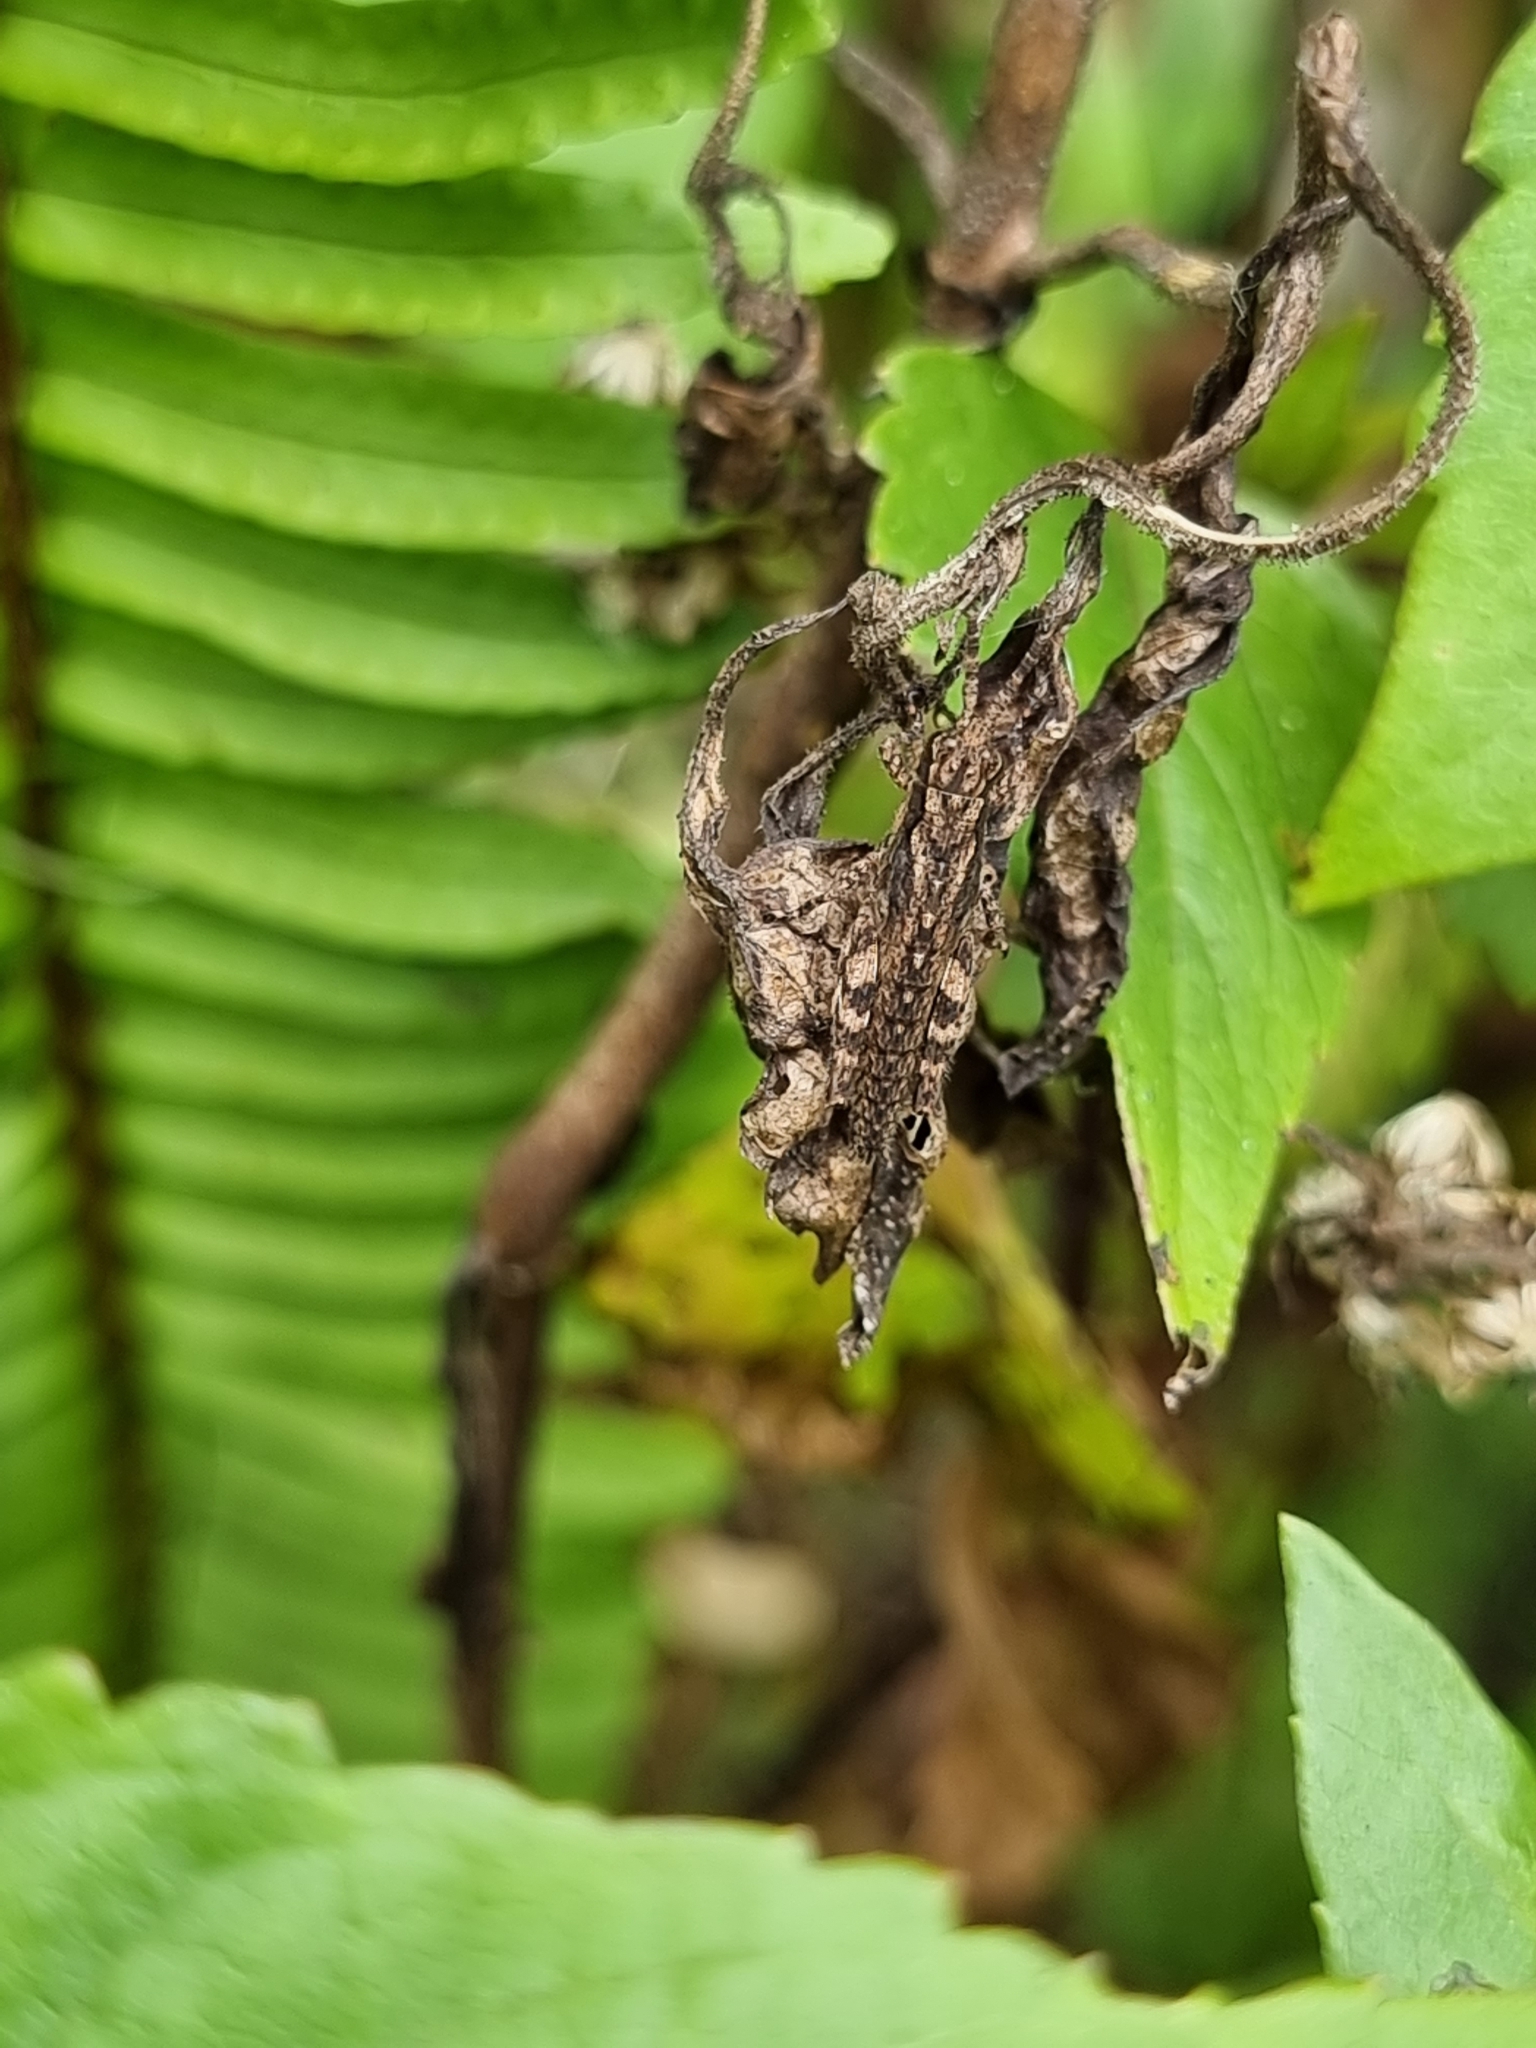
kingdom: Animalia
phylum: Arthropoda
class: Insecta
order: Orthoptera
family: Acrididae
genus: Coryphistes
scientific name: Coryphistes ruricola
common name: Bark-mimicking grasshopper
